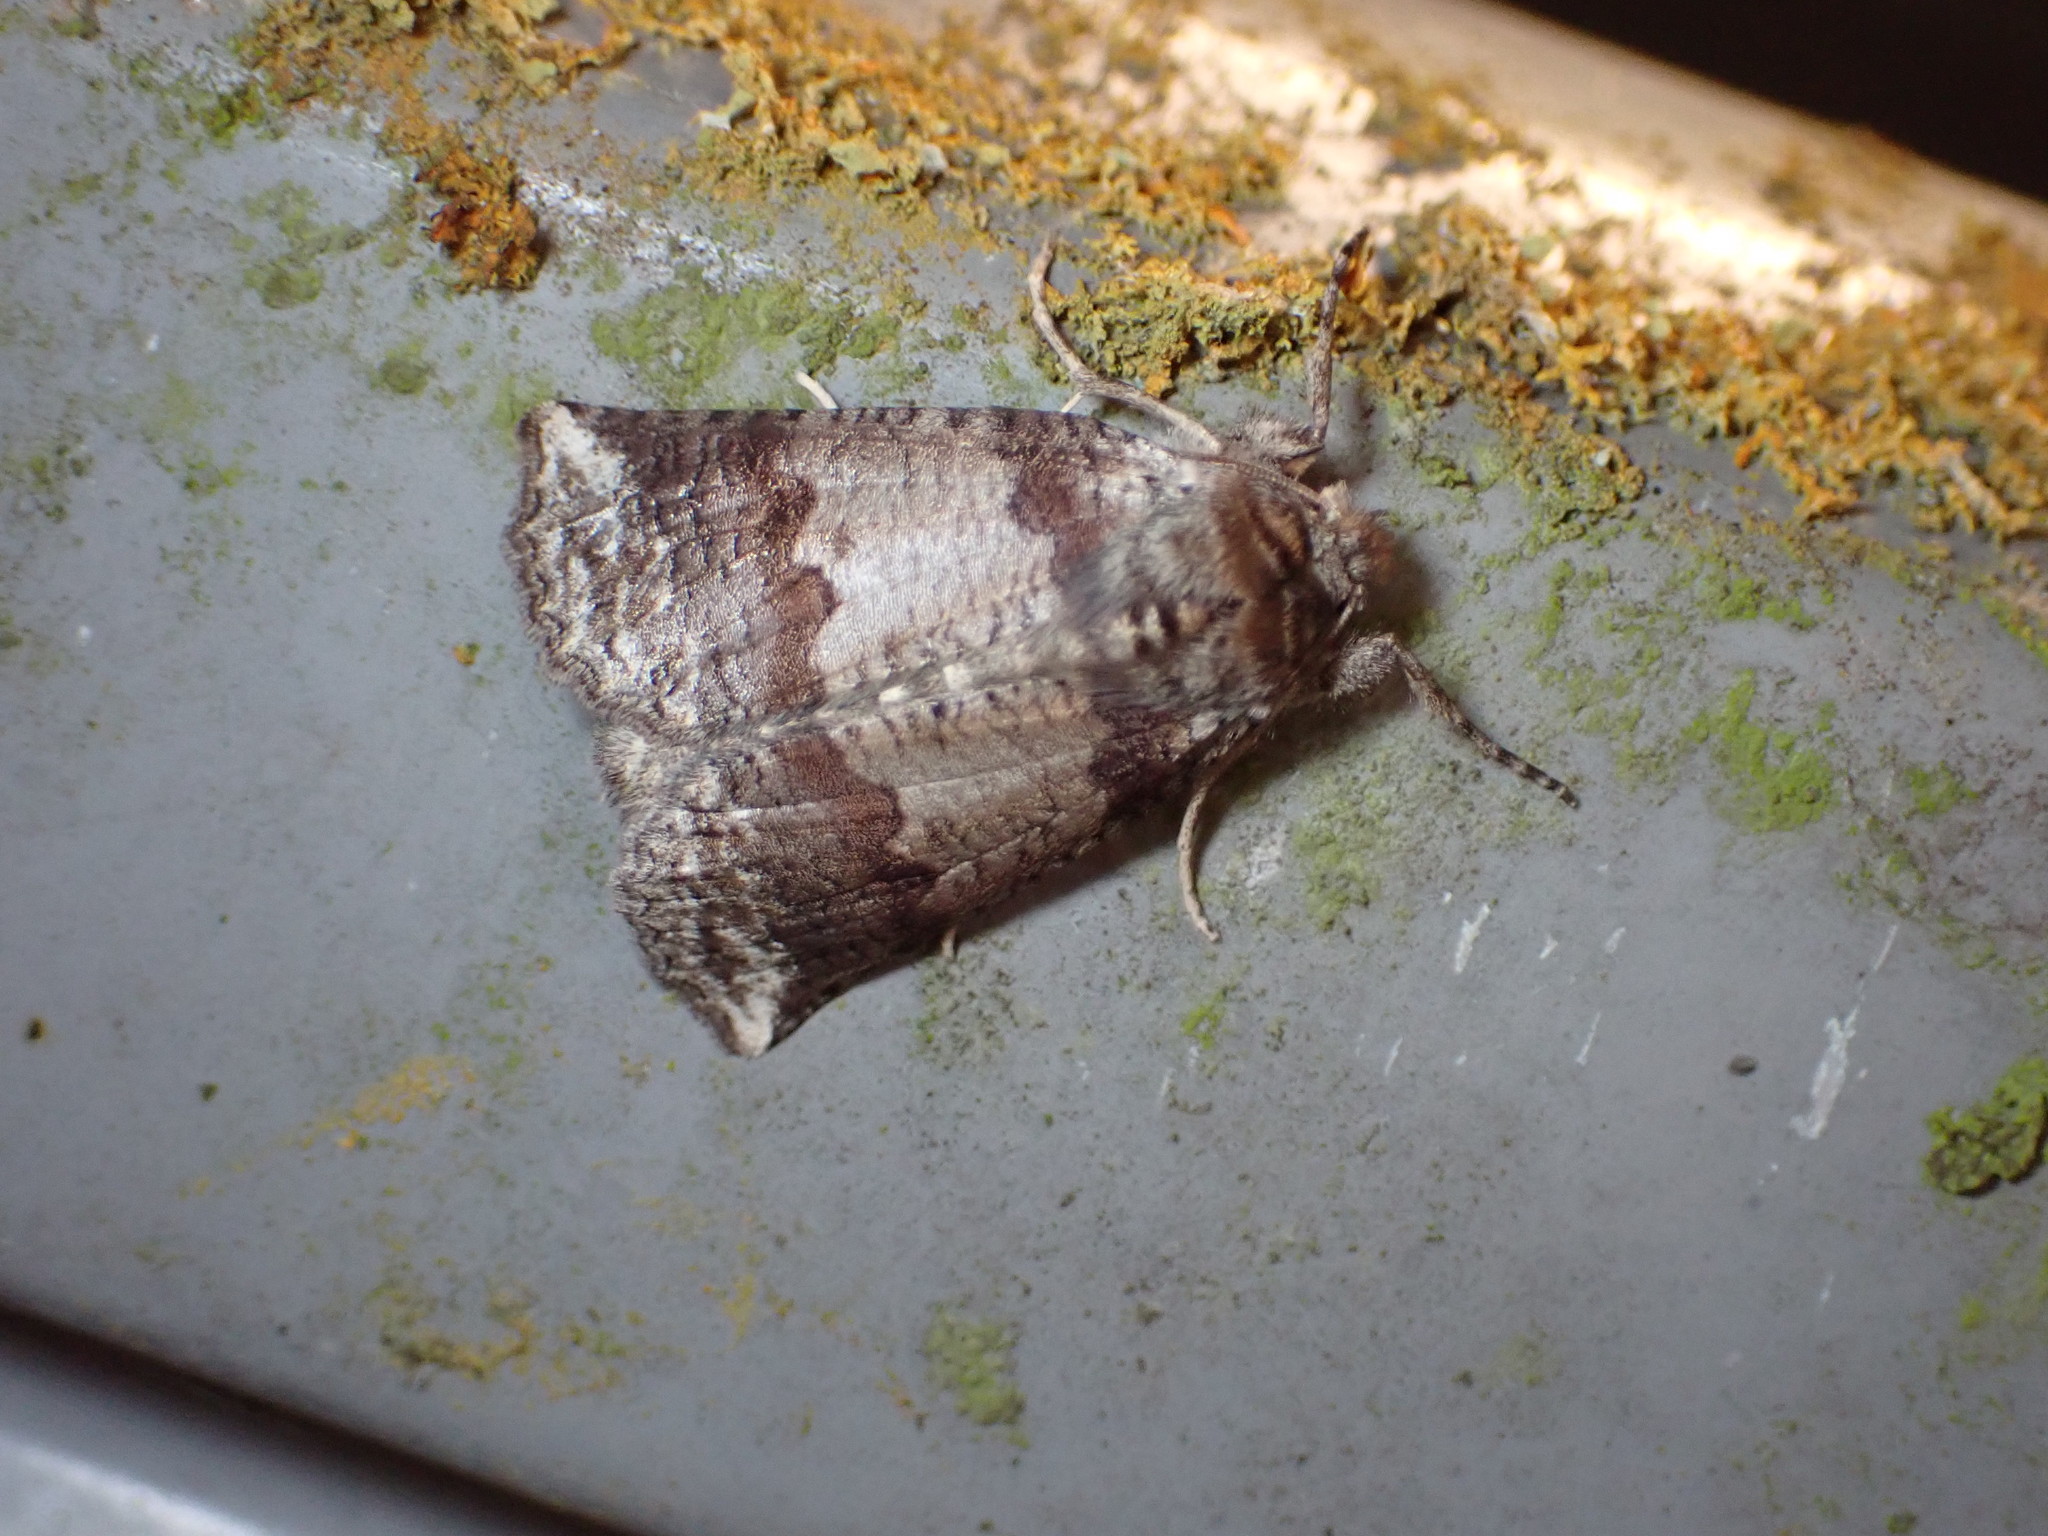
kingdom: Animalia
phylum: Arthropoda
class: Insecta
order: Lepidoptera
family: Geometridae
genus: Declana
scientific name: Declana
